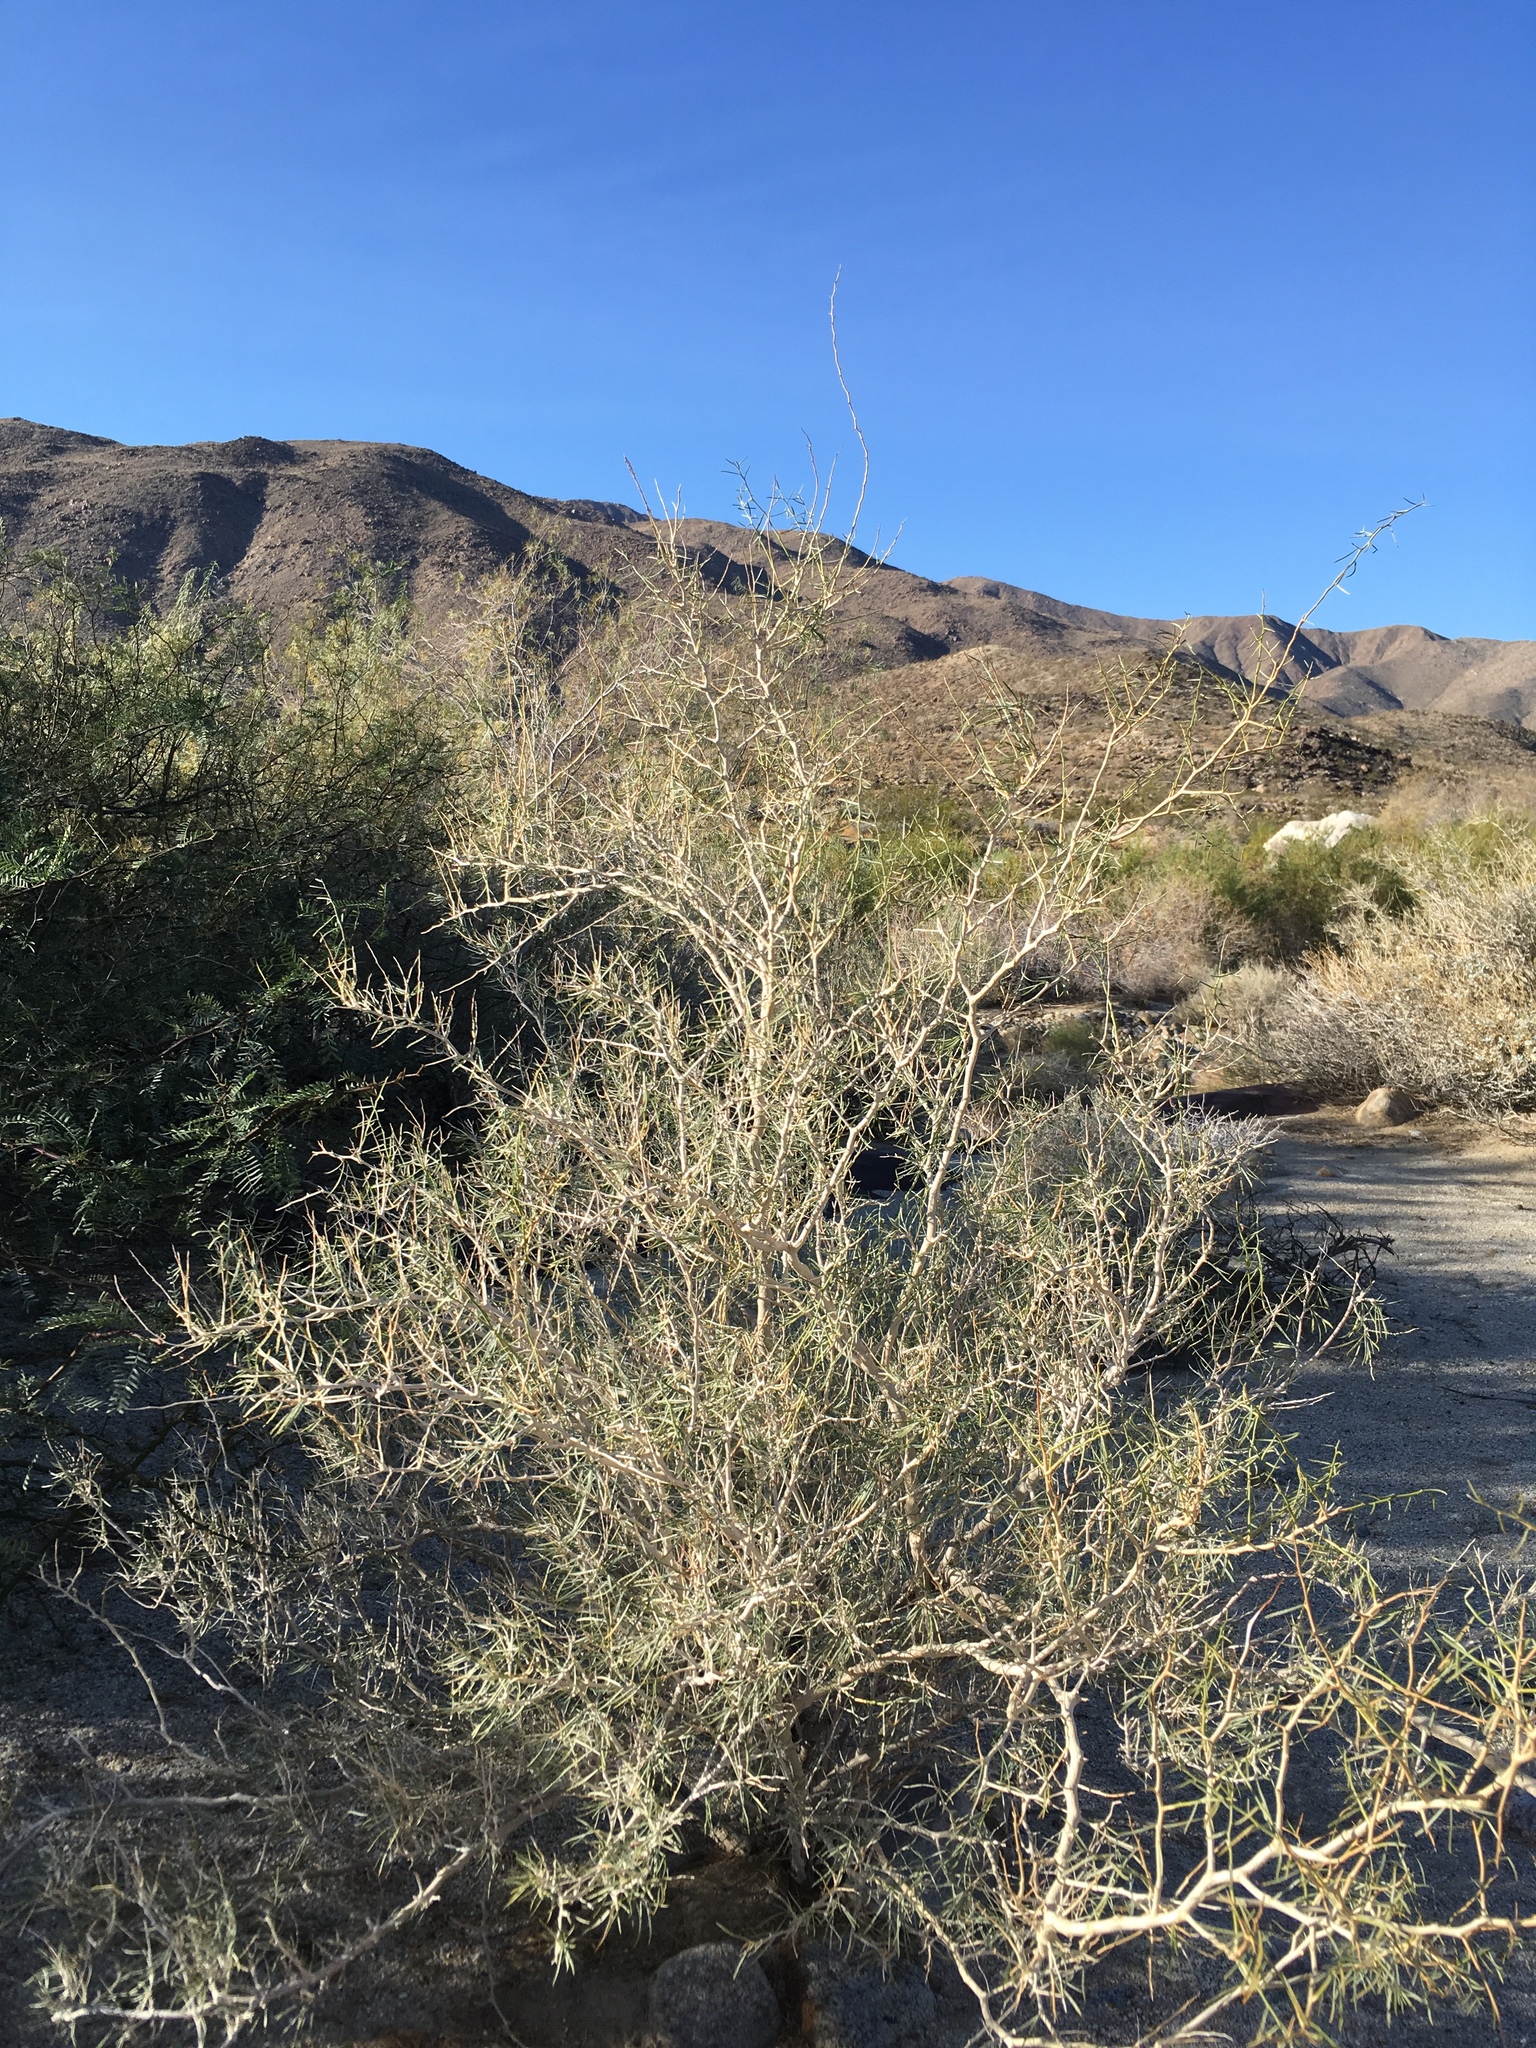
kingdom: Plantae
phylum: Tracheophyta
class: Magnoliopsida
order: Fabales
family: Fabaceae
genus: Psorothamnus
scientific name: Psorothamnus schottii
